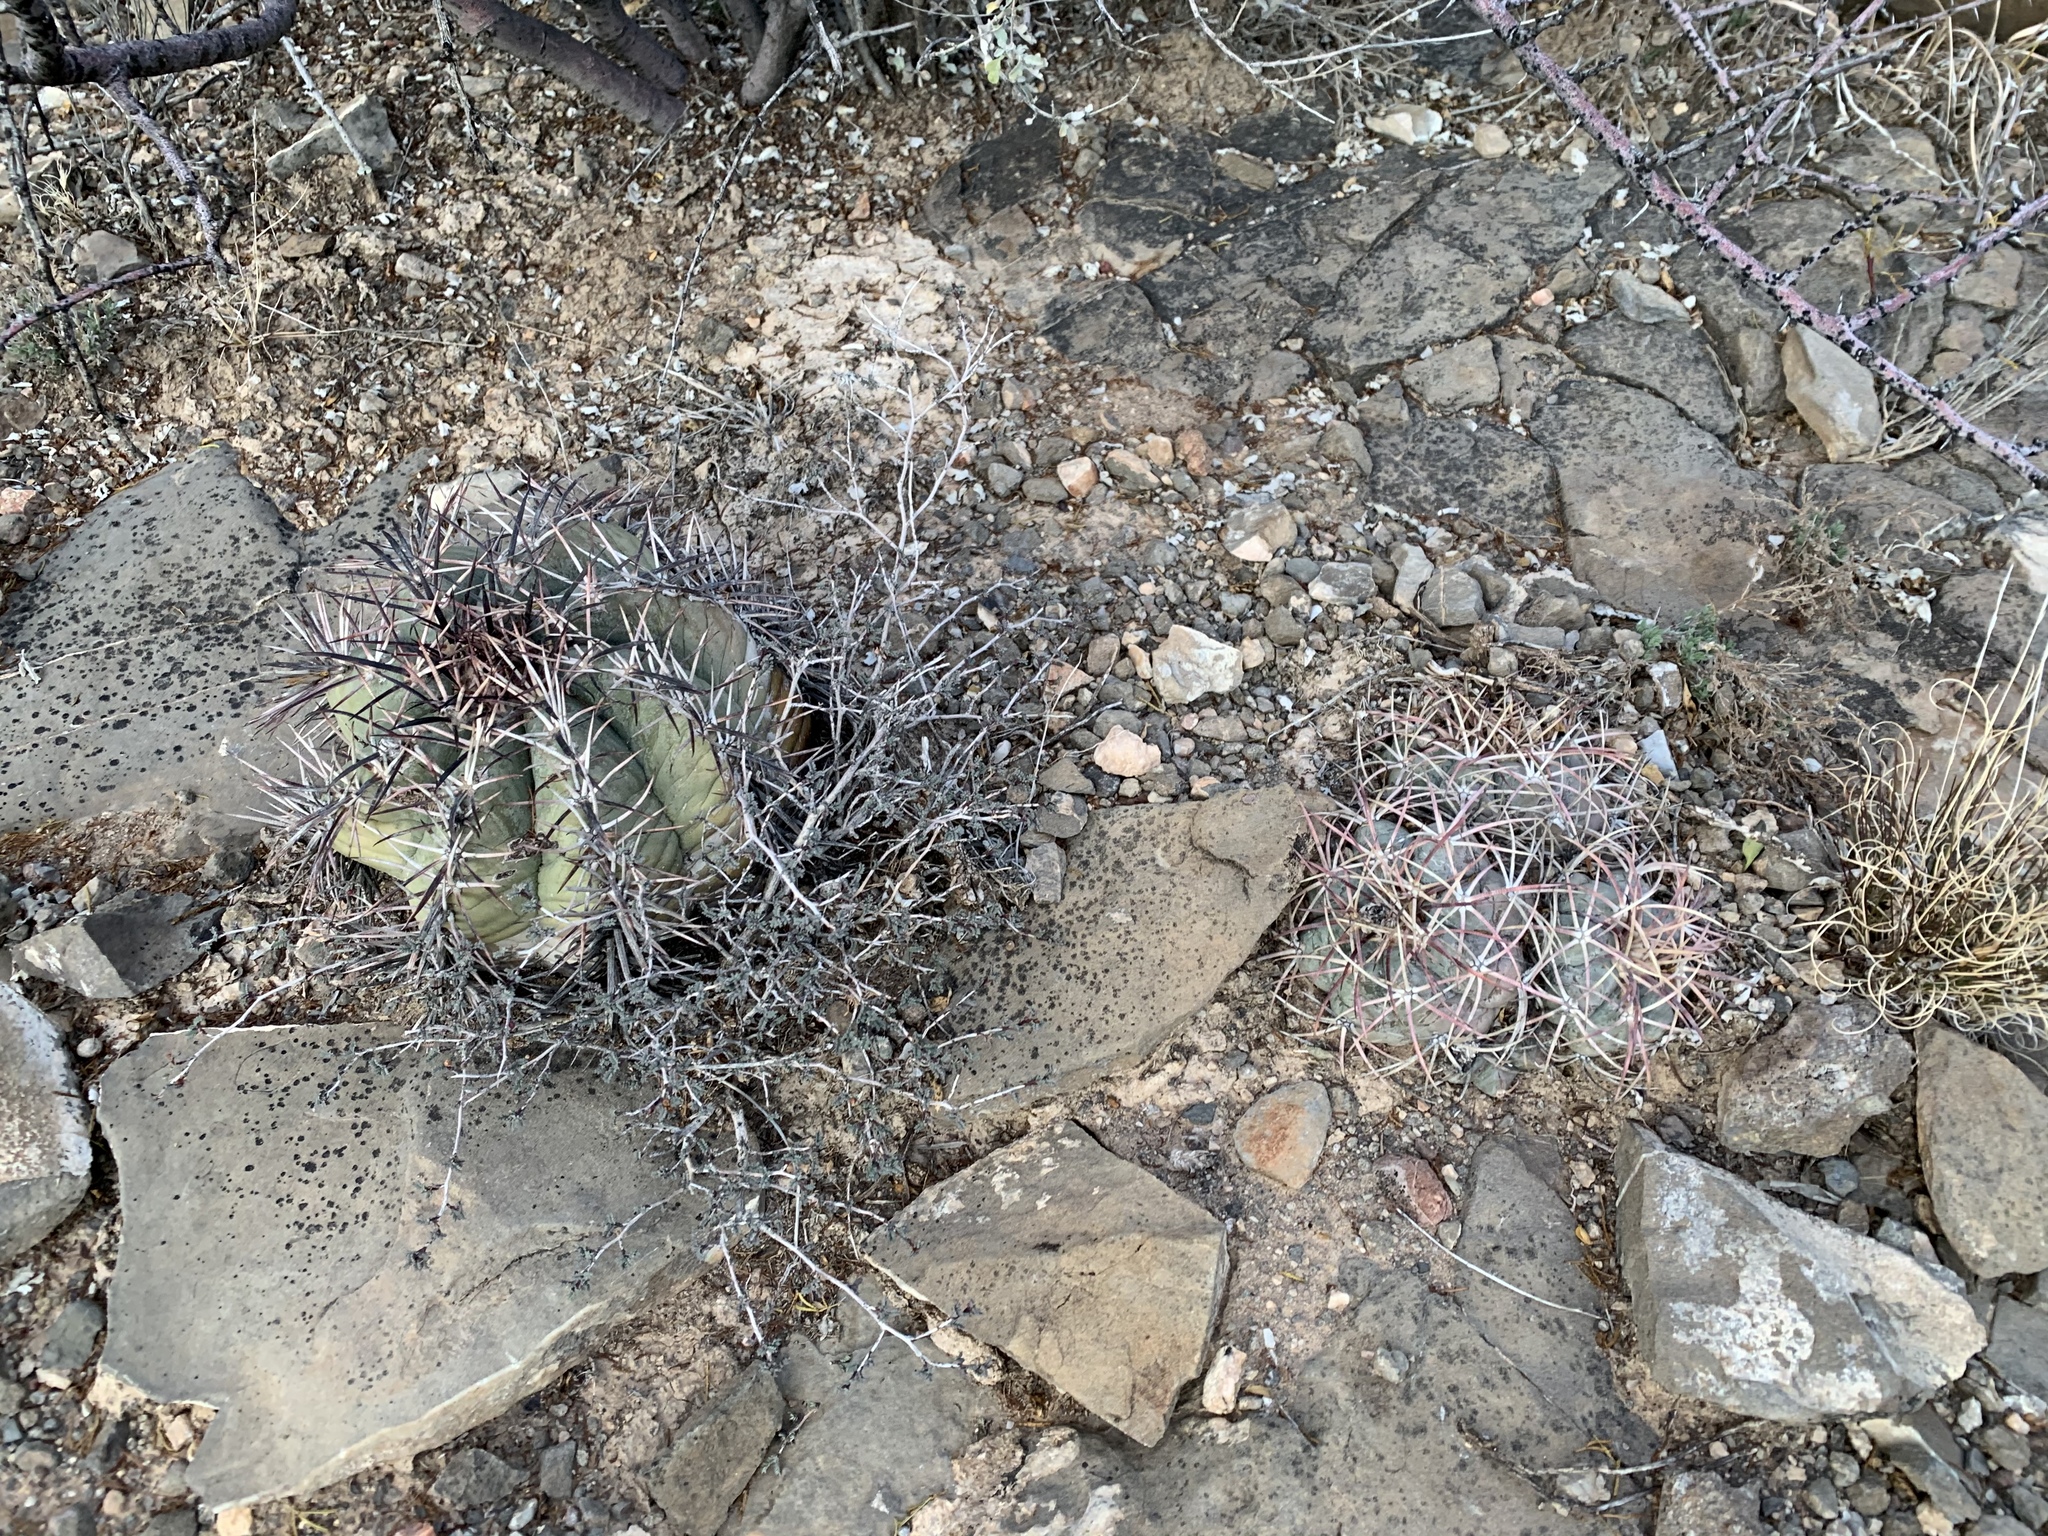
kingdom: Plantae
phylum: Tracheophyta
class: Magnoliopsida
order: Caryophyllales
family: Cactaceae
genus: Echinocactus
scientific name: Echinocactus horizonthalonius
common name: Devilshead
